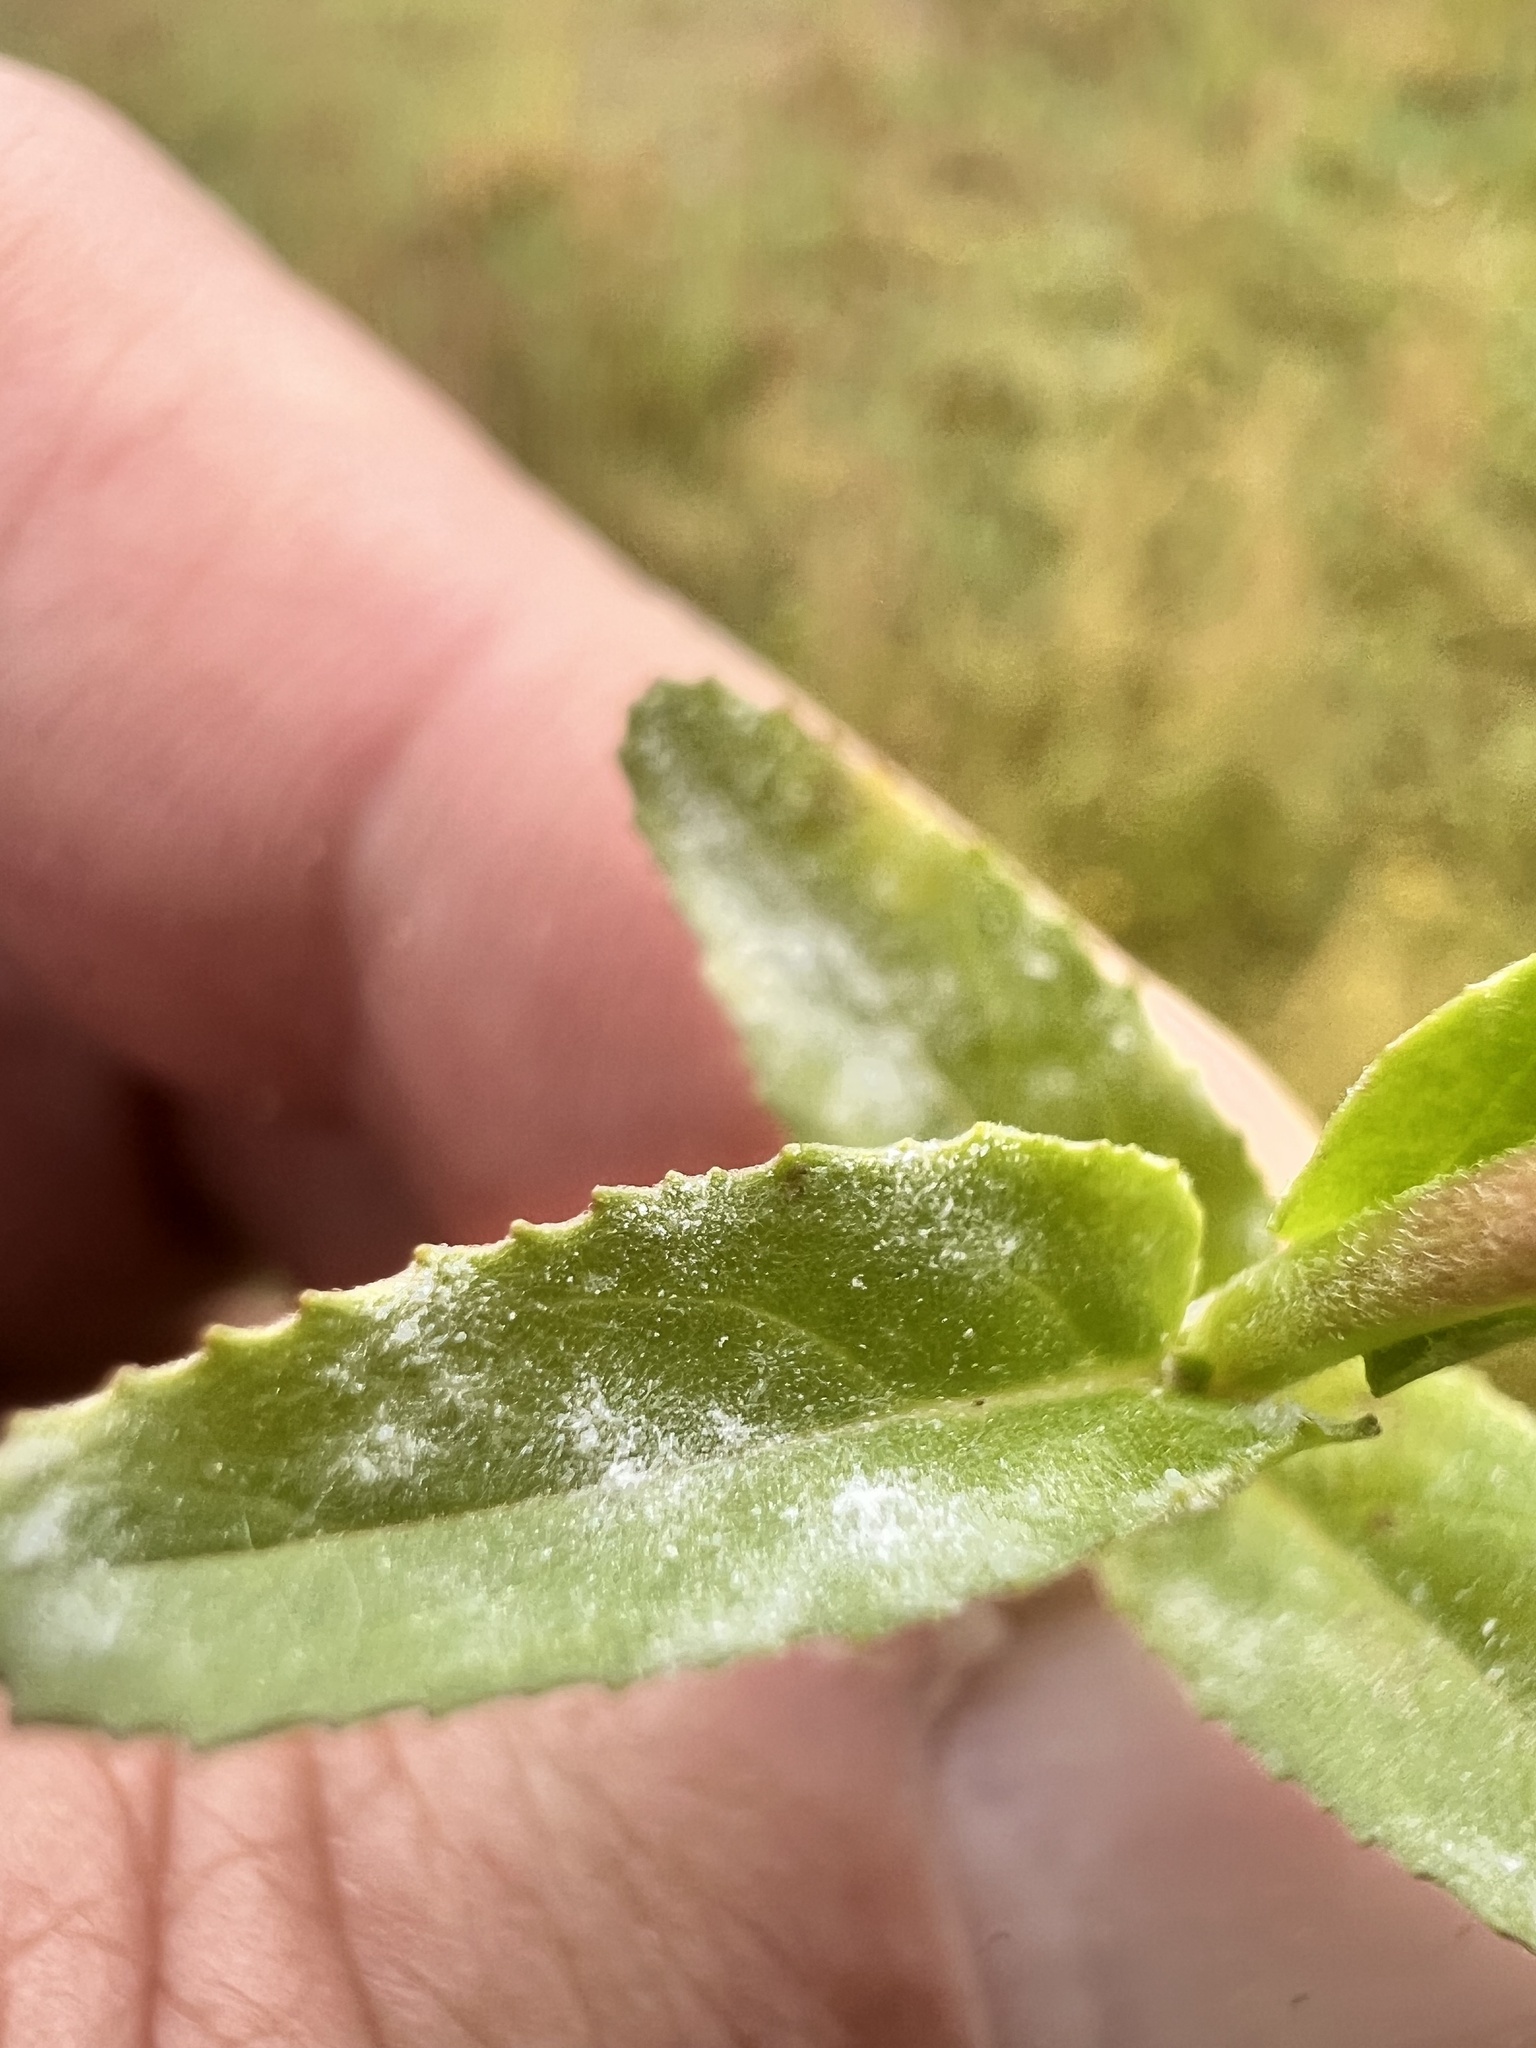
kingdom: Fungi
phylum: Ascomycota
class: Leotiomycetes
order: Helotiales
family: Erysiphaceae
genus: Podosphaera
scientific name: Podosphaera epilobii
